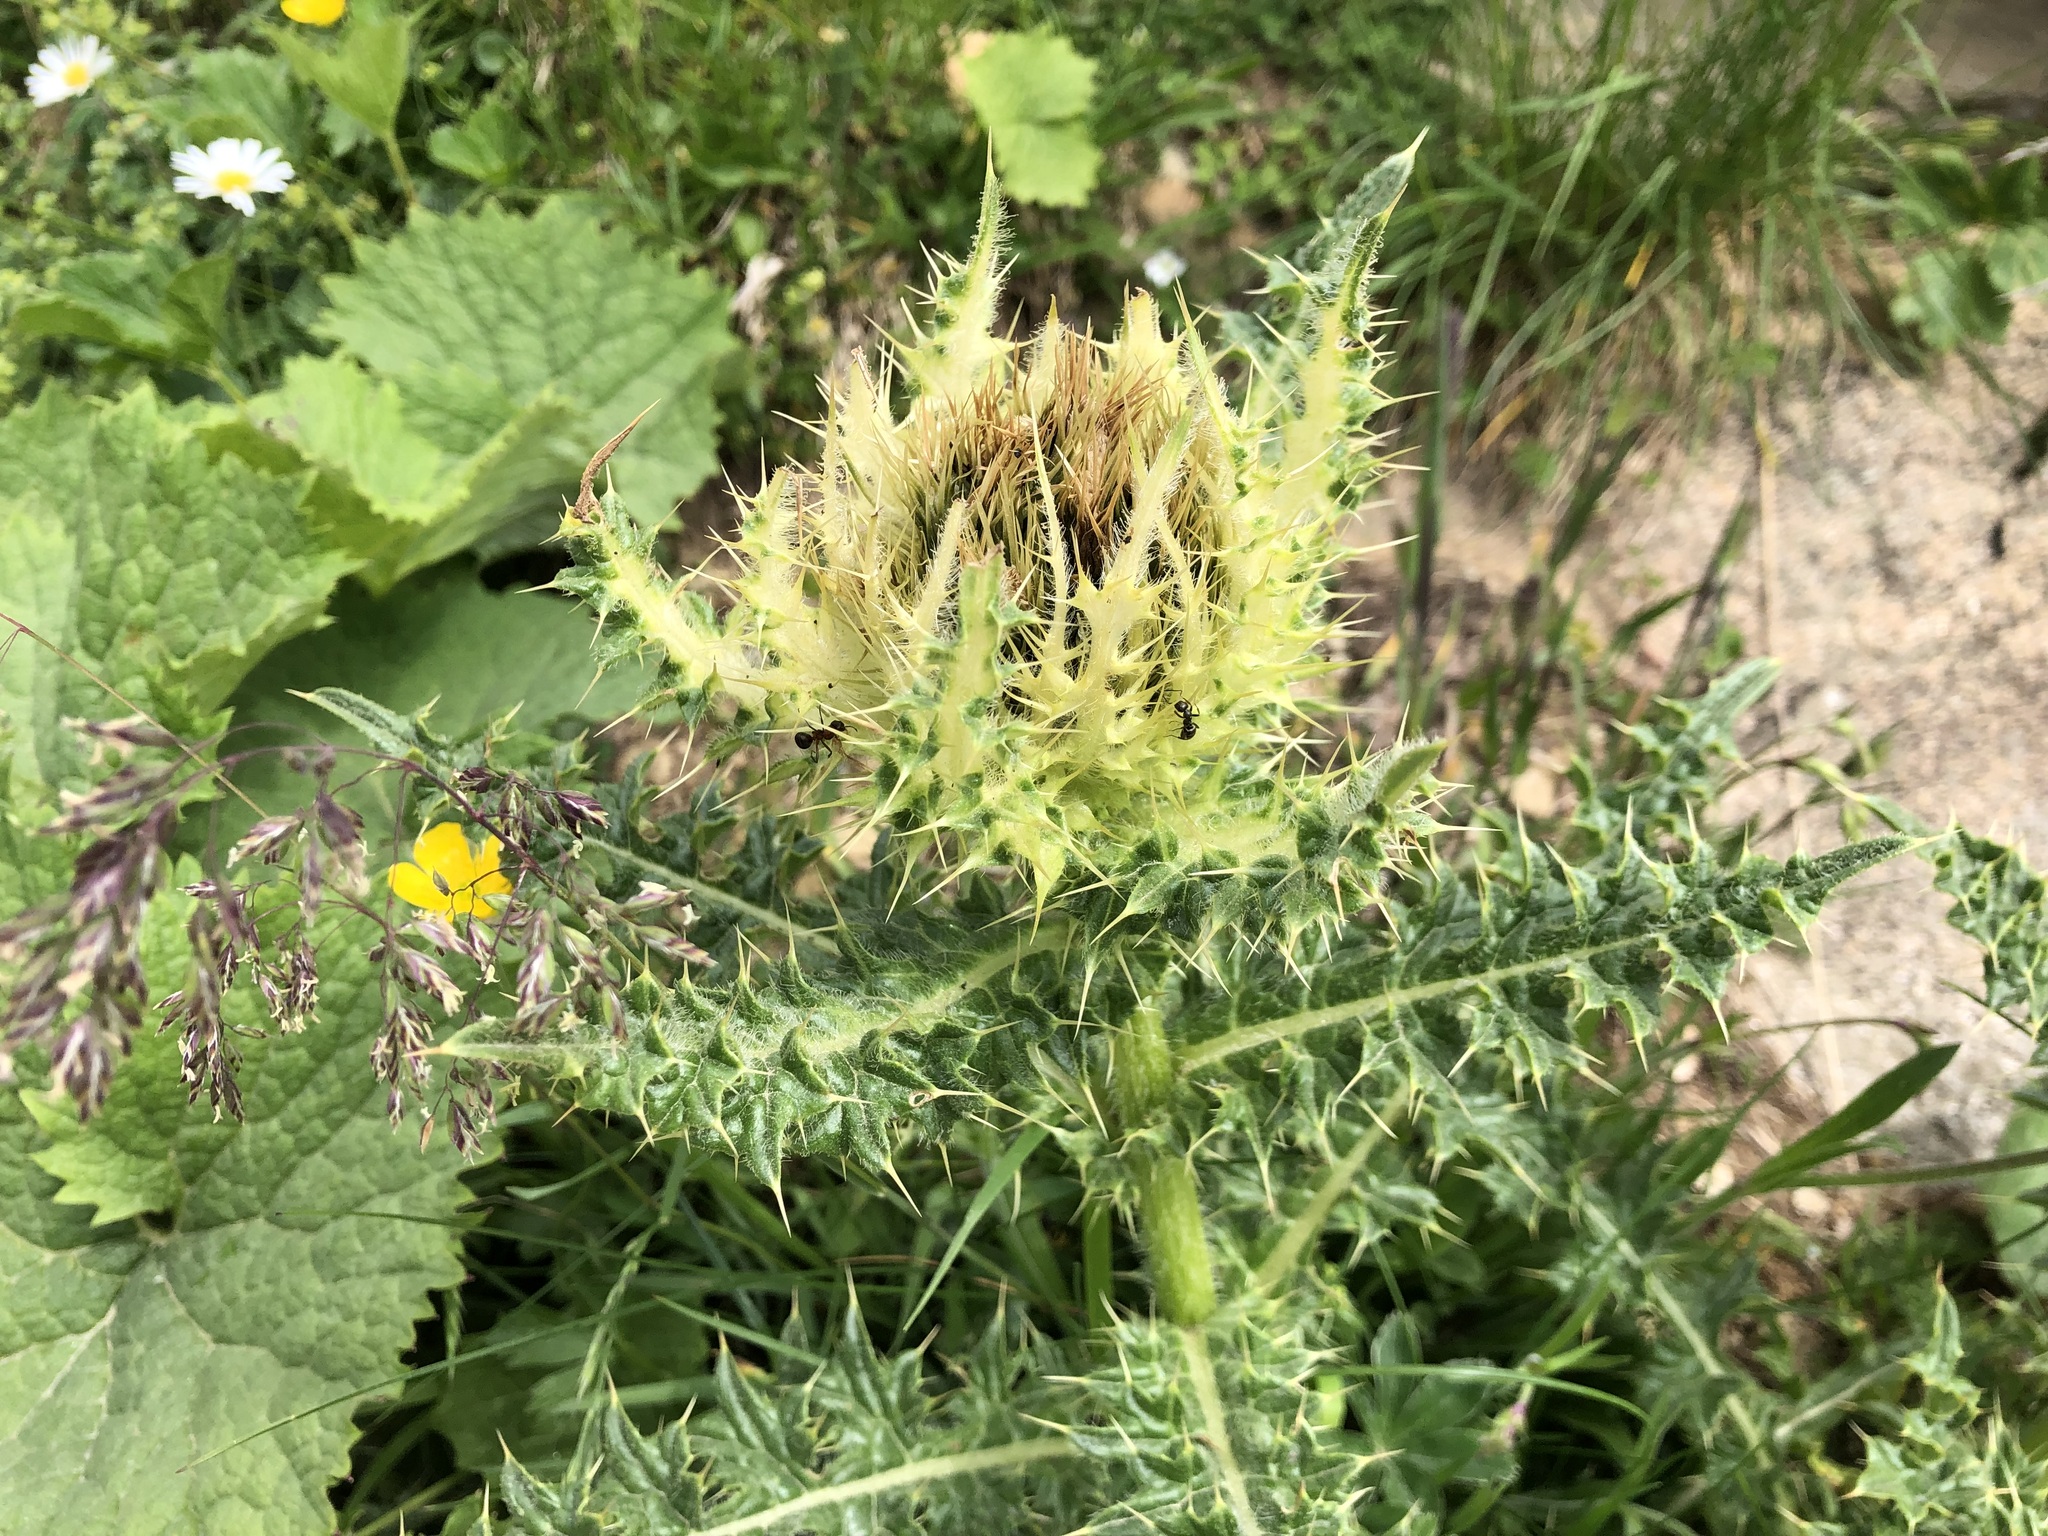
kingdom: Plantae
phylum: Tracheophyta
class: Magnoliopsida
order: Asterales
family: Asteraceae
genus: Cirsium
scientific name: Cirsium spinosissimum
